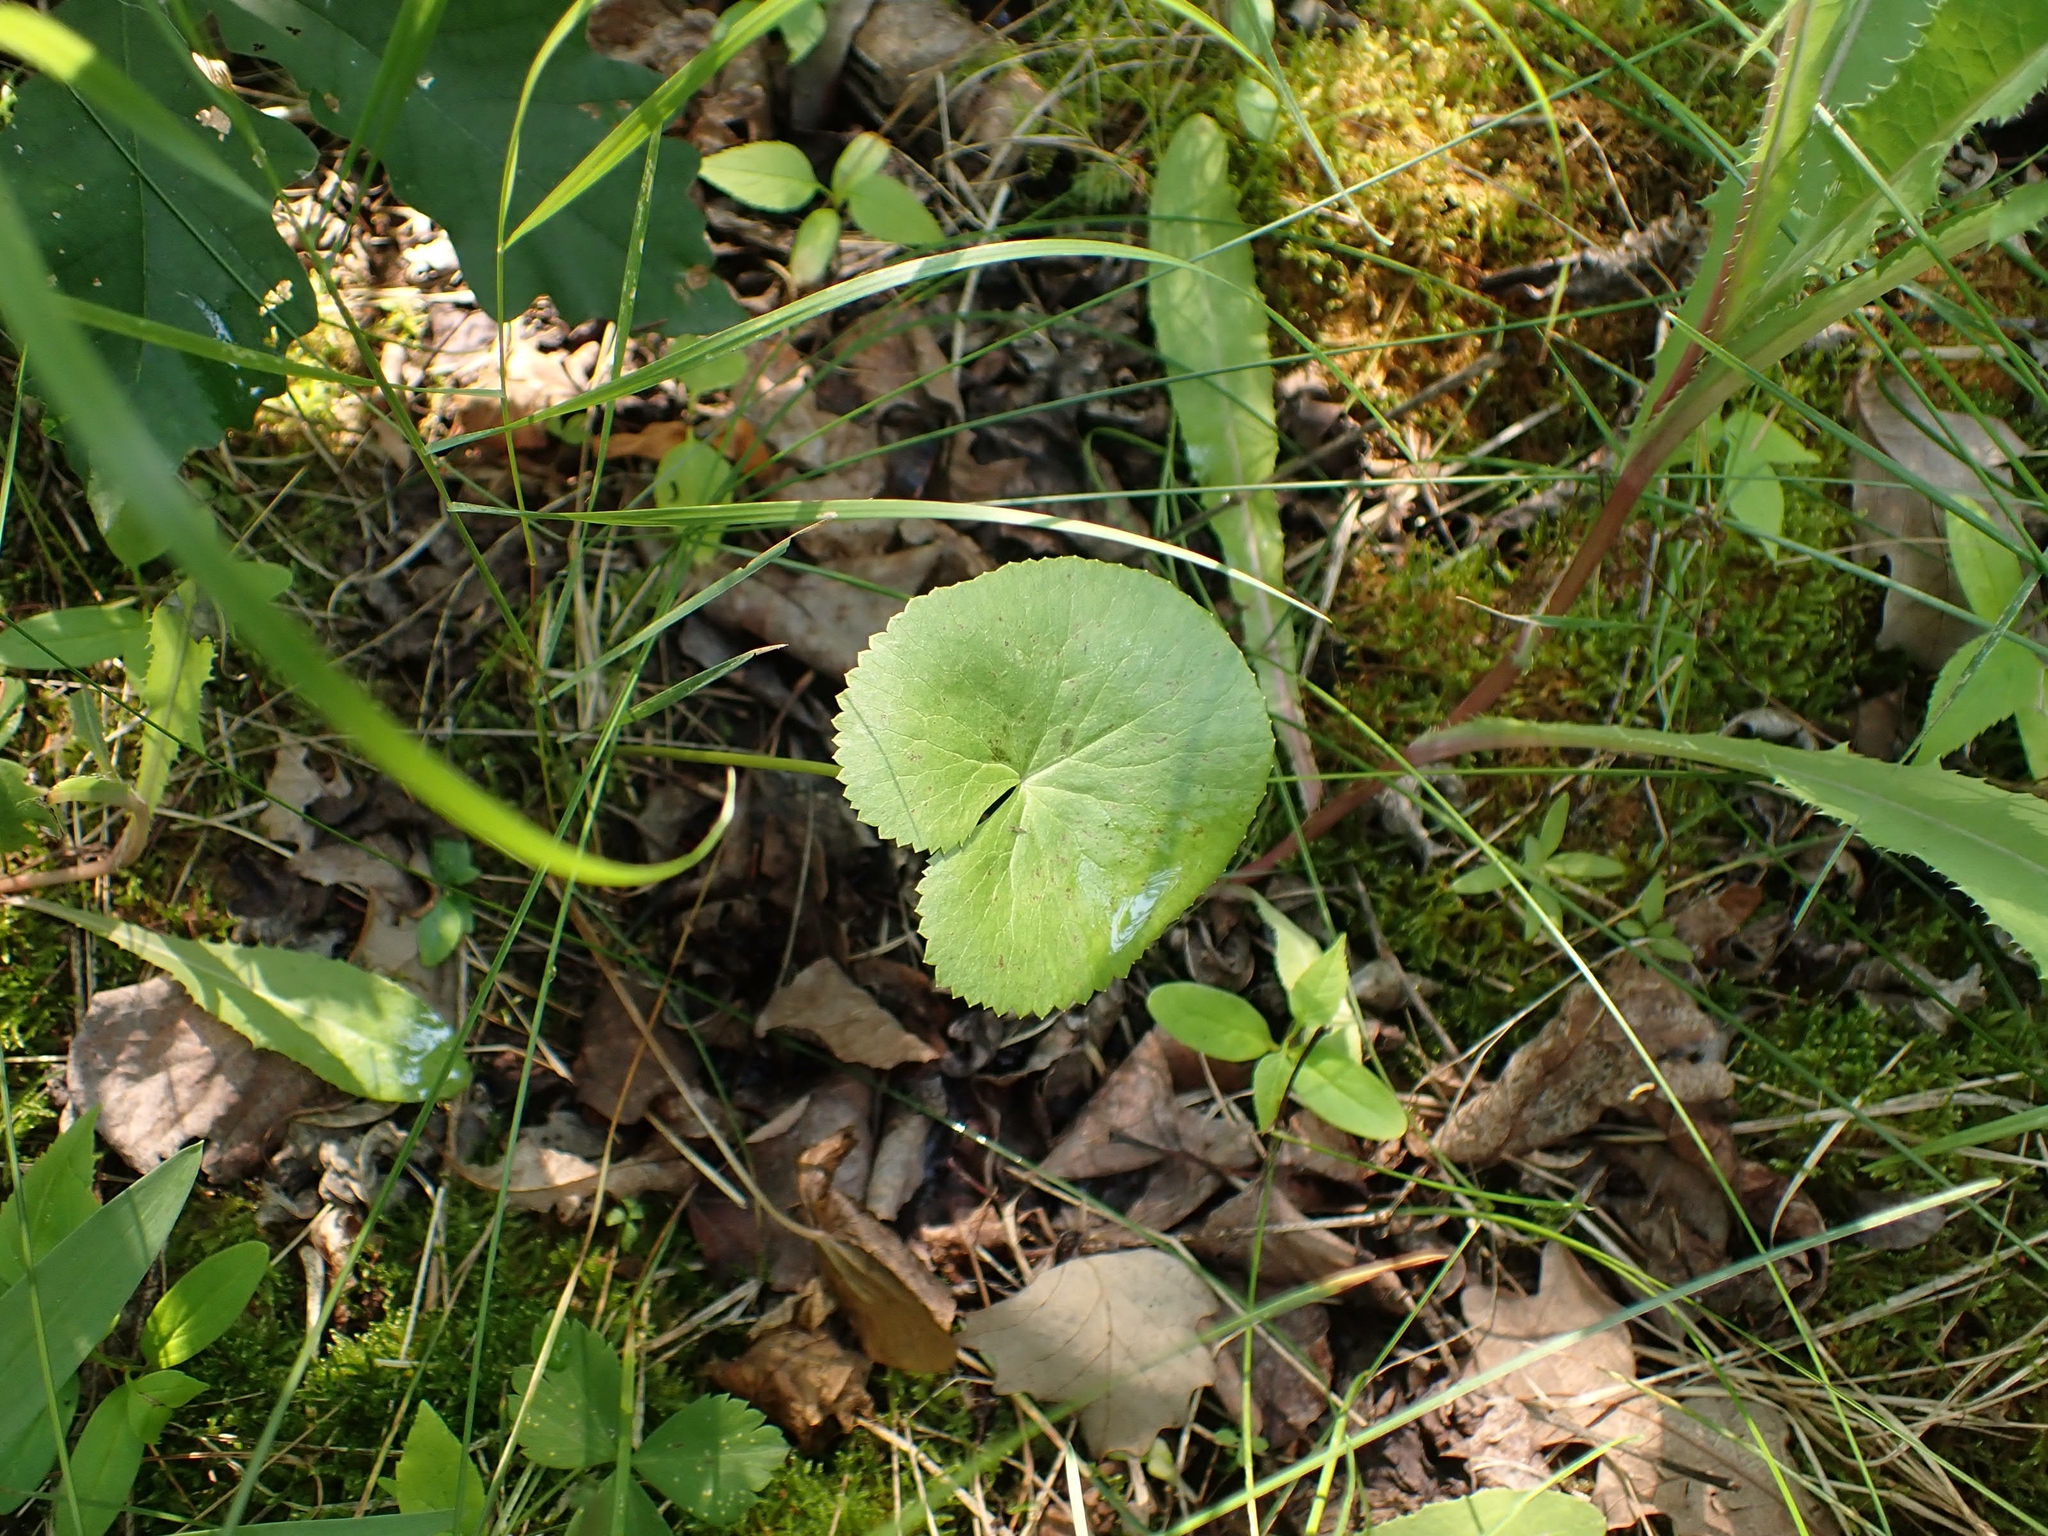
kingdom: Plantae
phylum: Tracheophyta
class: Magnoliopsida
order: Ranunculales
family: Ranunculaceae
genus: Caltha
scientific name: Caltha palustris
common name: Marsh marigold
